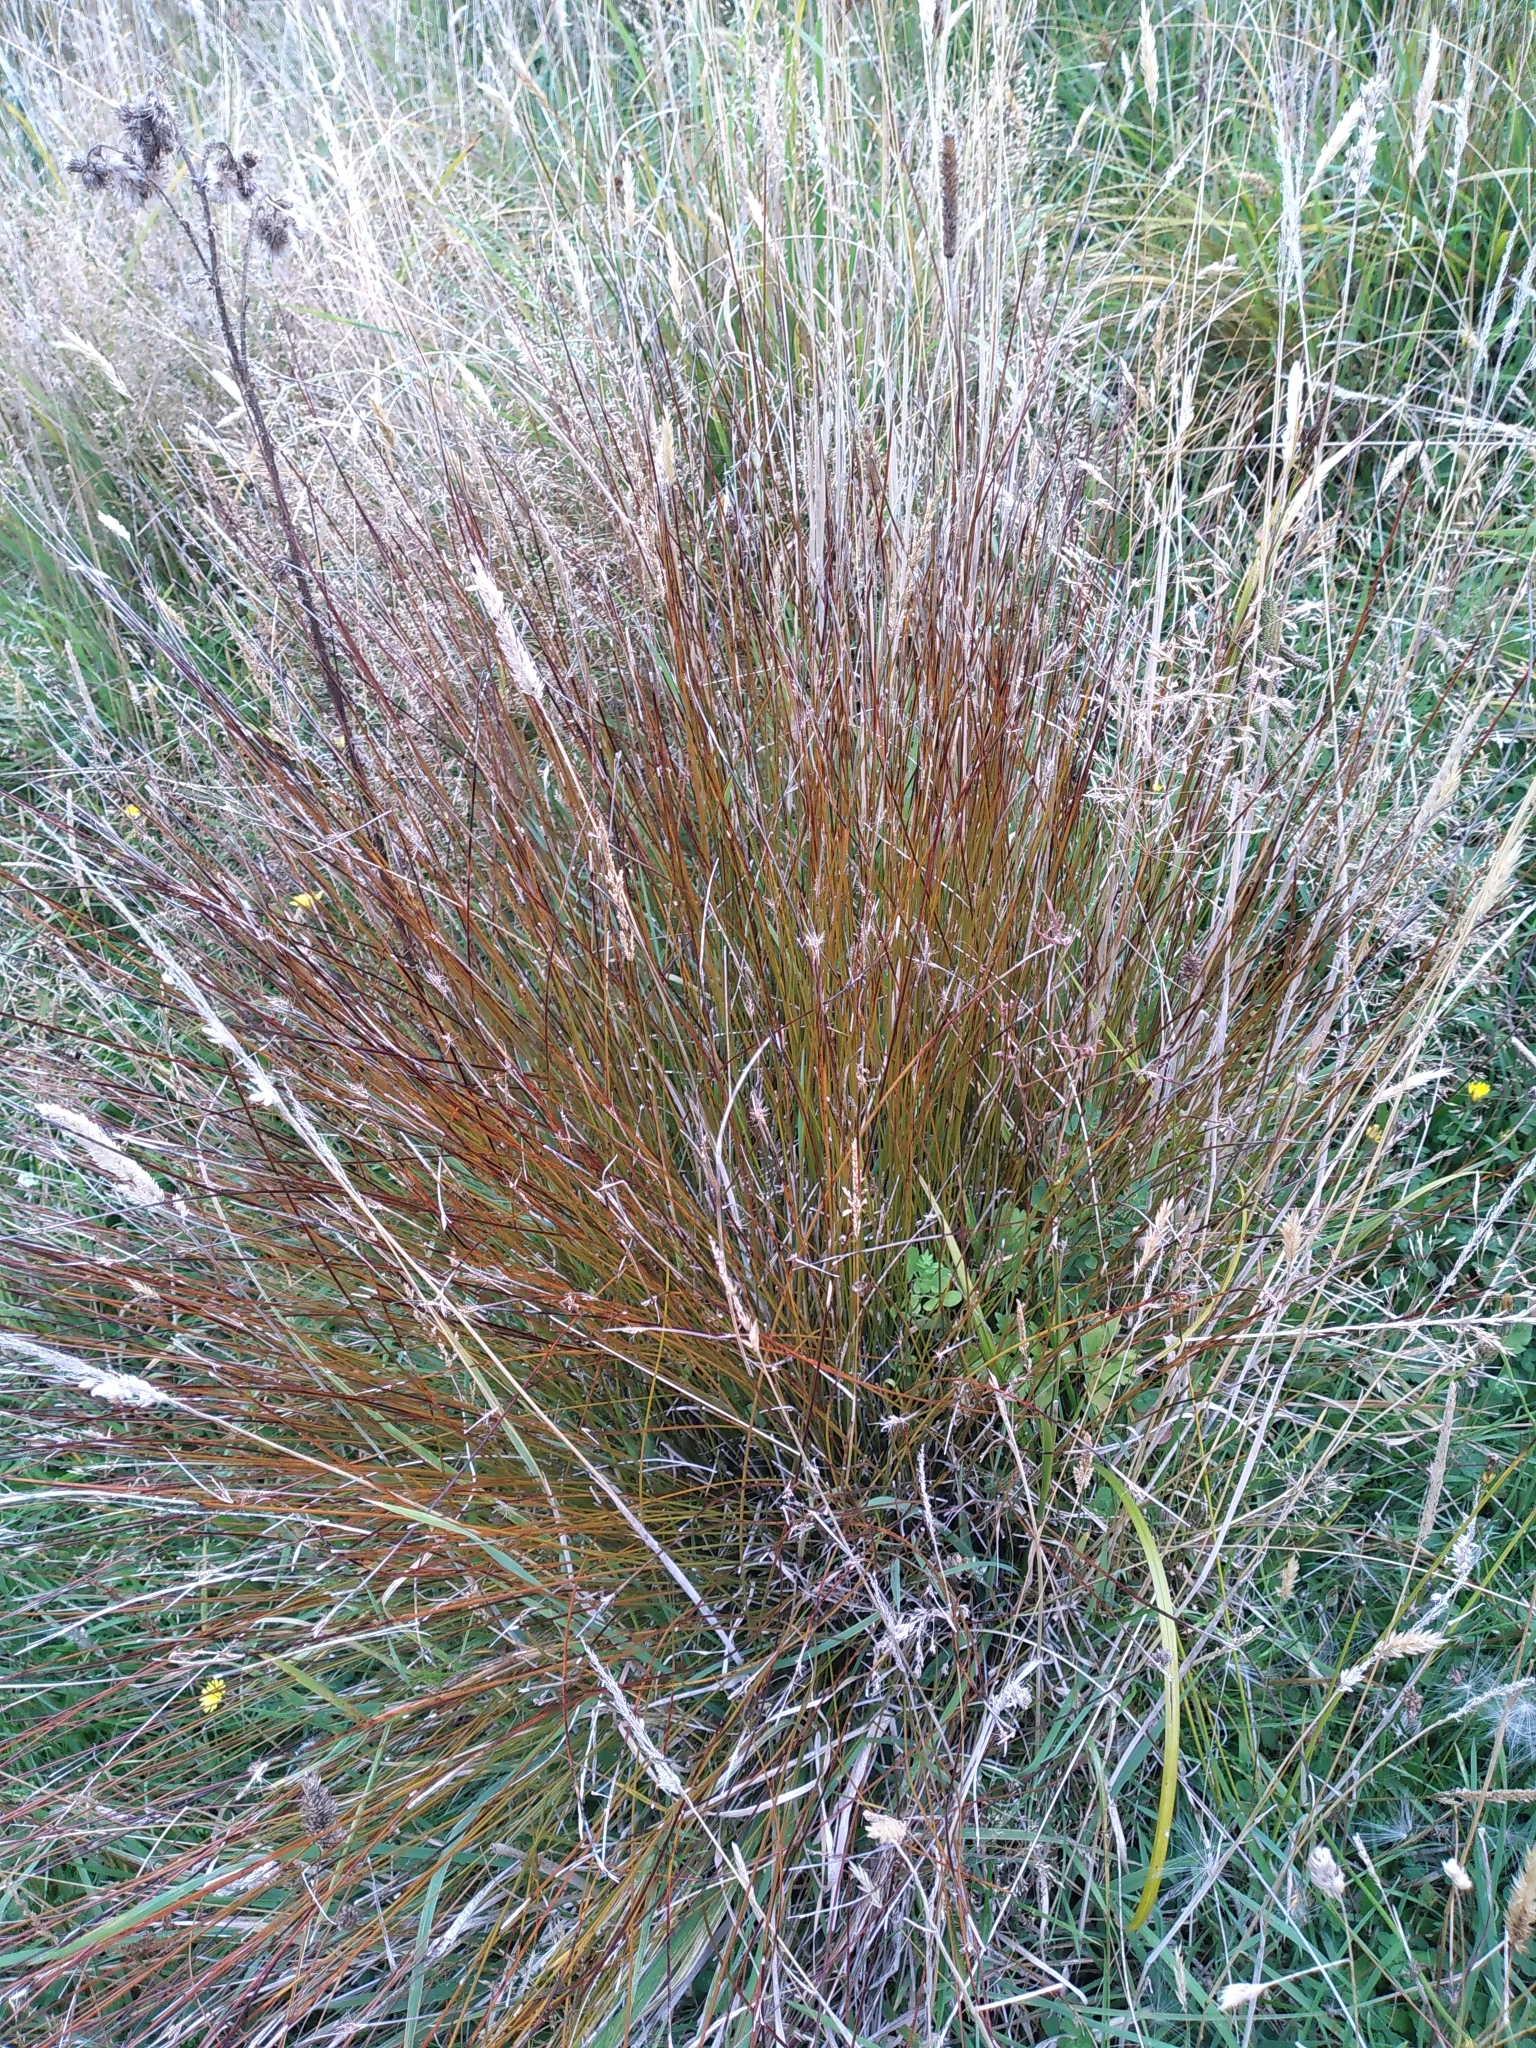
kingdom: Plantae
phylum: Tracheophyta
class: Liliopsida
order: Poales
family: Cyperaceae
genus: Schoenus
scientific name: Schoenus pauciflorus
